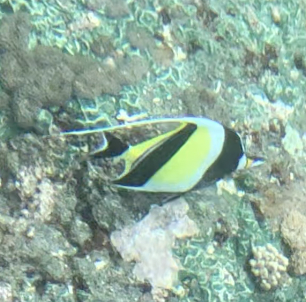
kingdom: Animalia
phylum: Chordata
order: Perciformes
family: Zanclidae
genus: Zanclus
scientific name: Zanclus cornutus
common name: Moorish idol
